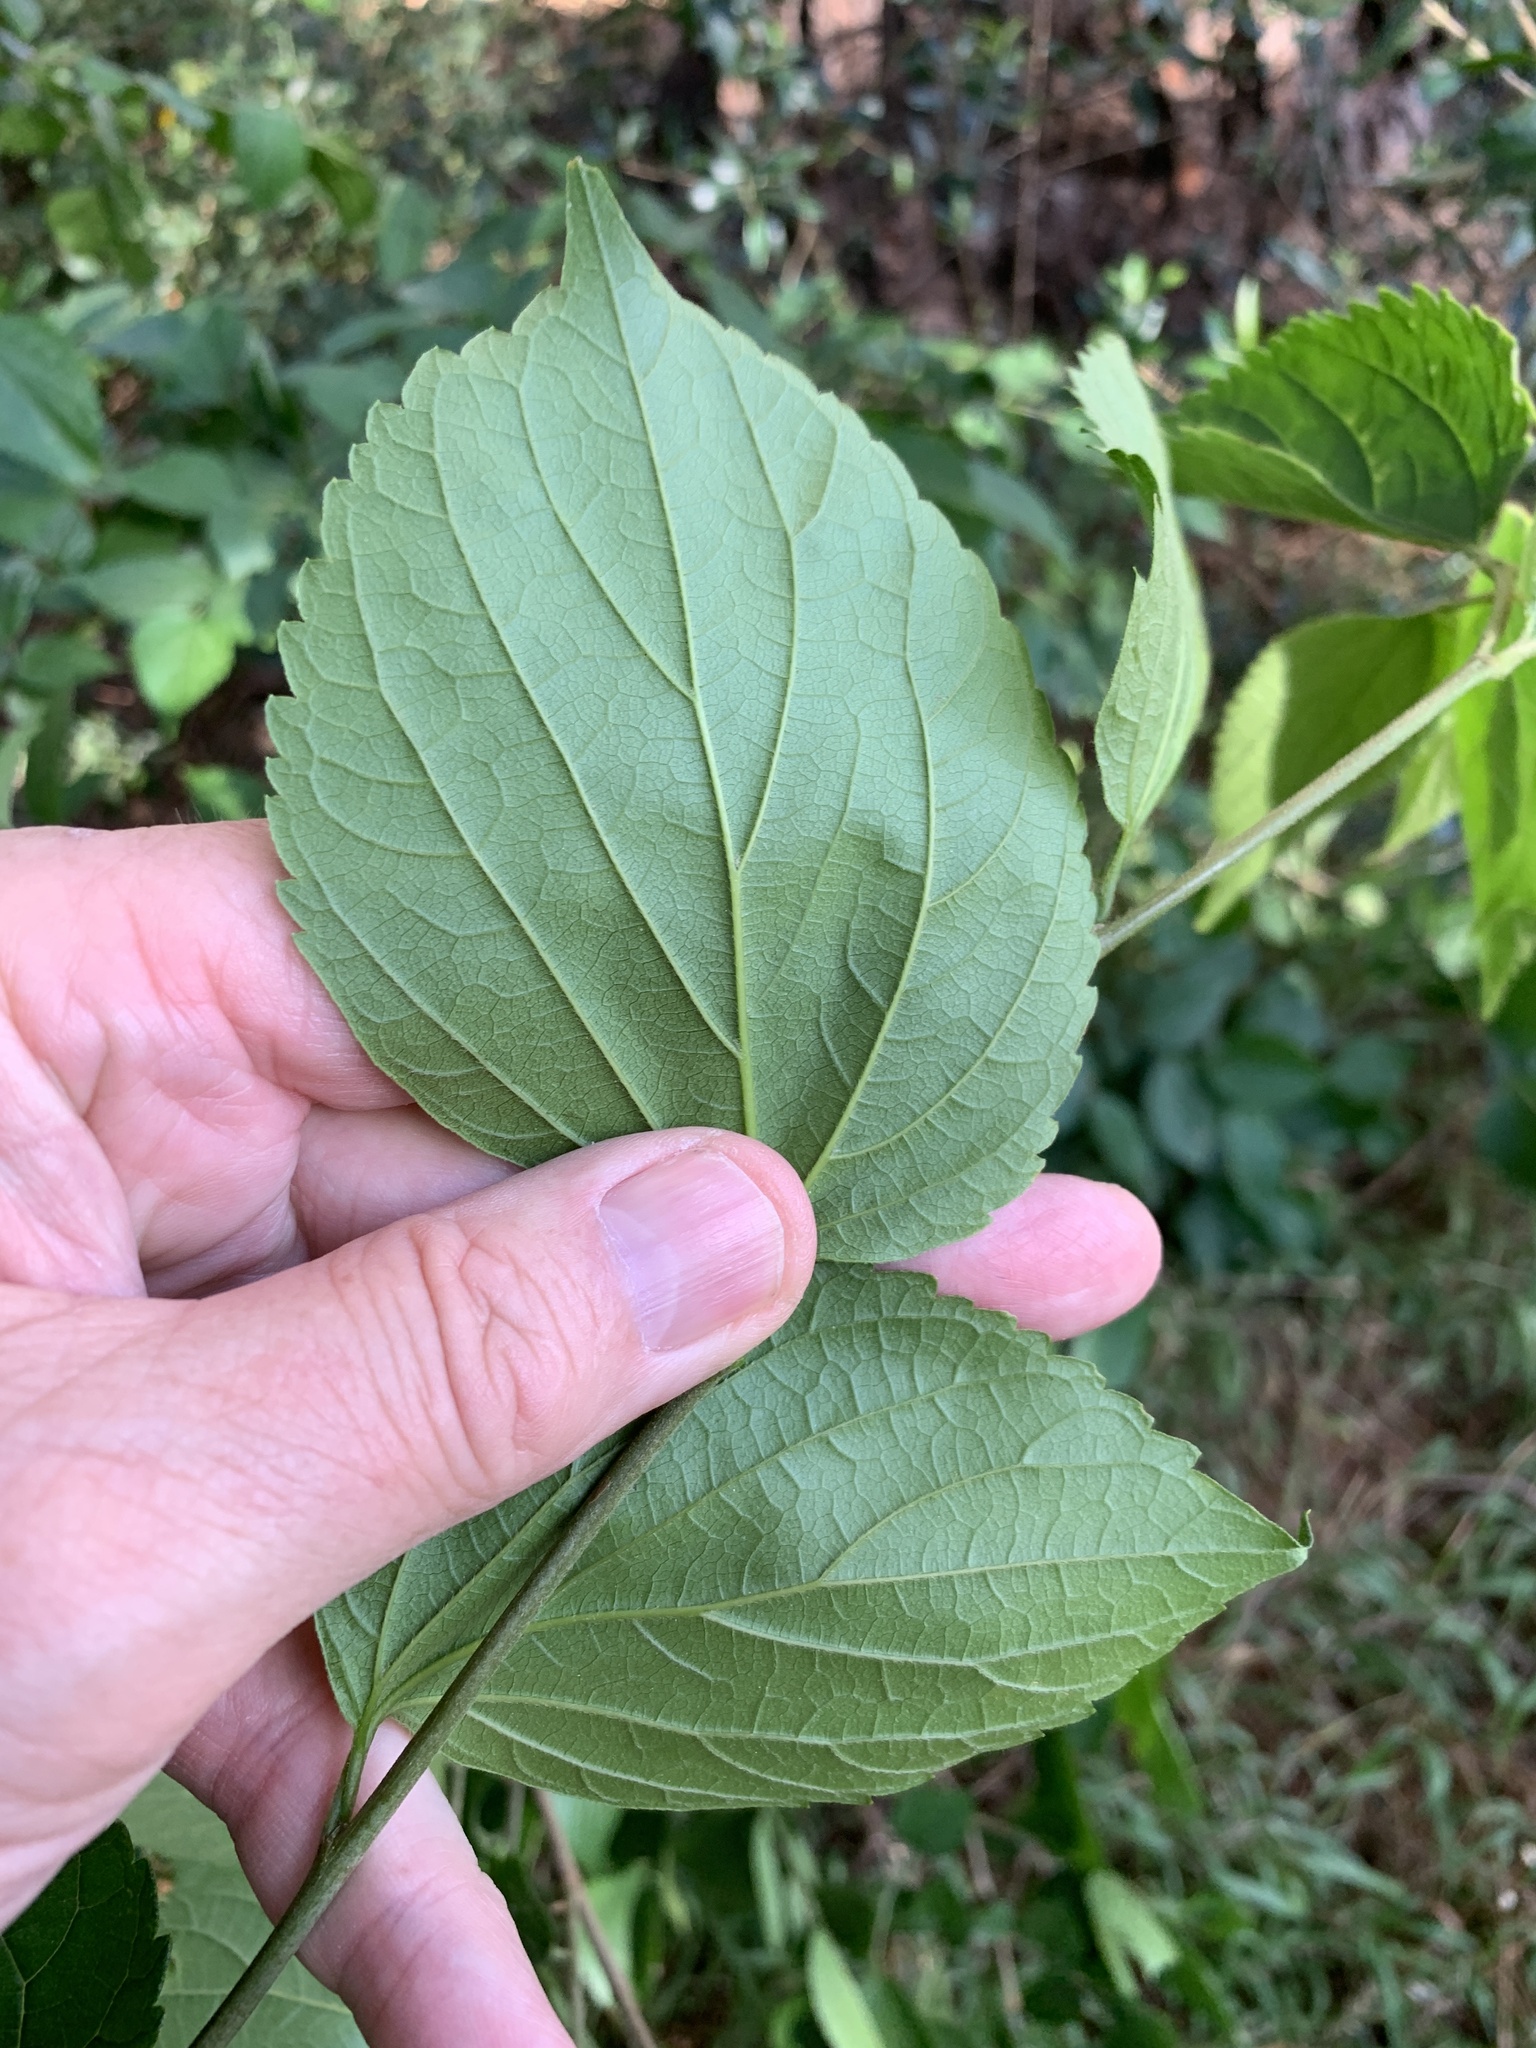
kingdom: Plantae
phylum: Tracheophyta
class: Magnoliopsida
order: Rosales
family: Cannabaceae
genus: Celtis
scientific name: Celtis sinensis
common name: Chinese hackberry
